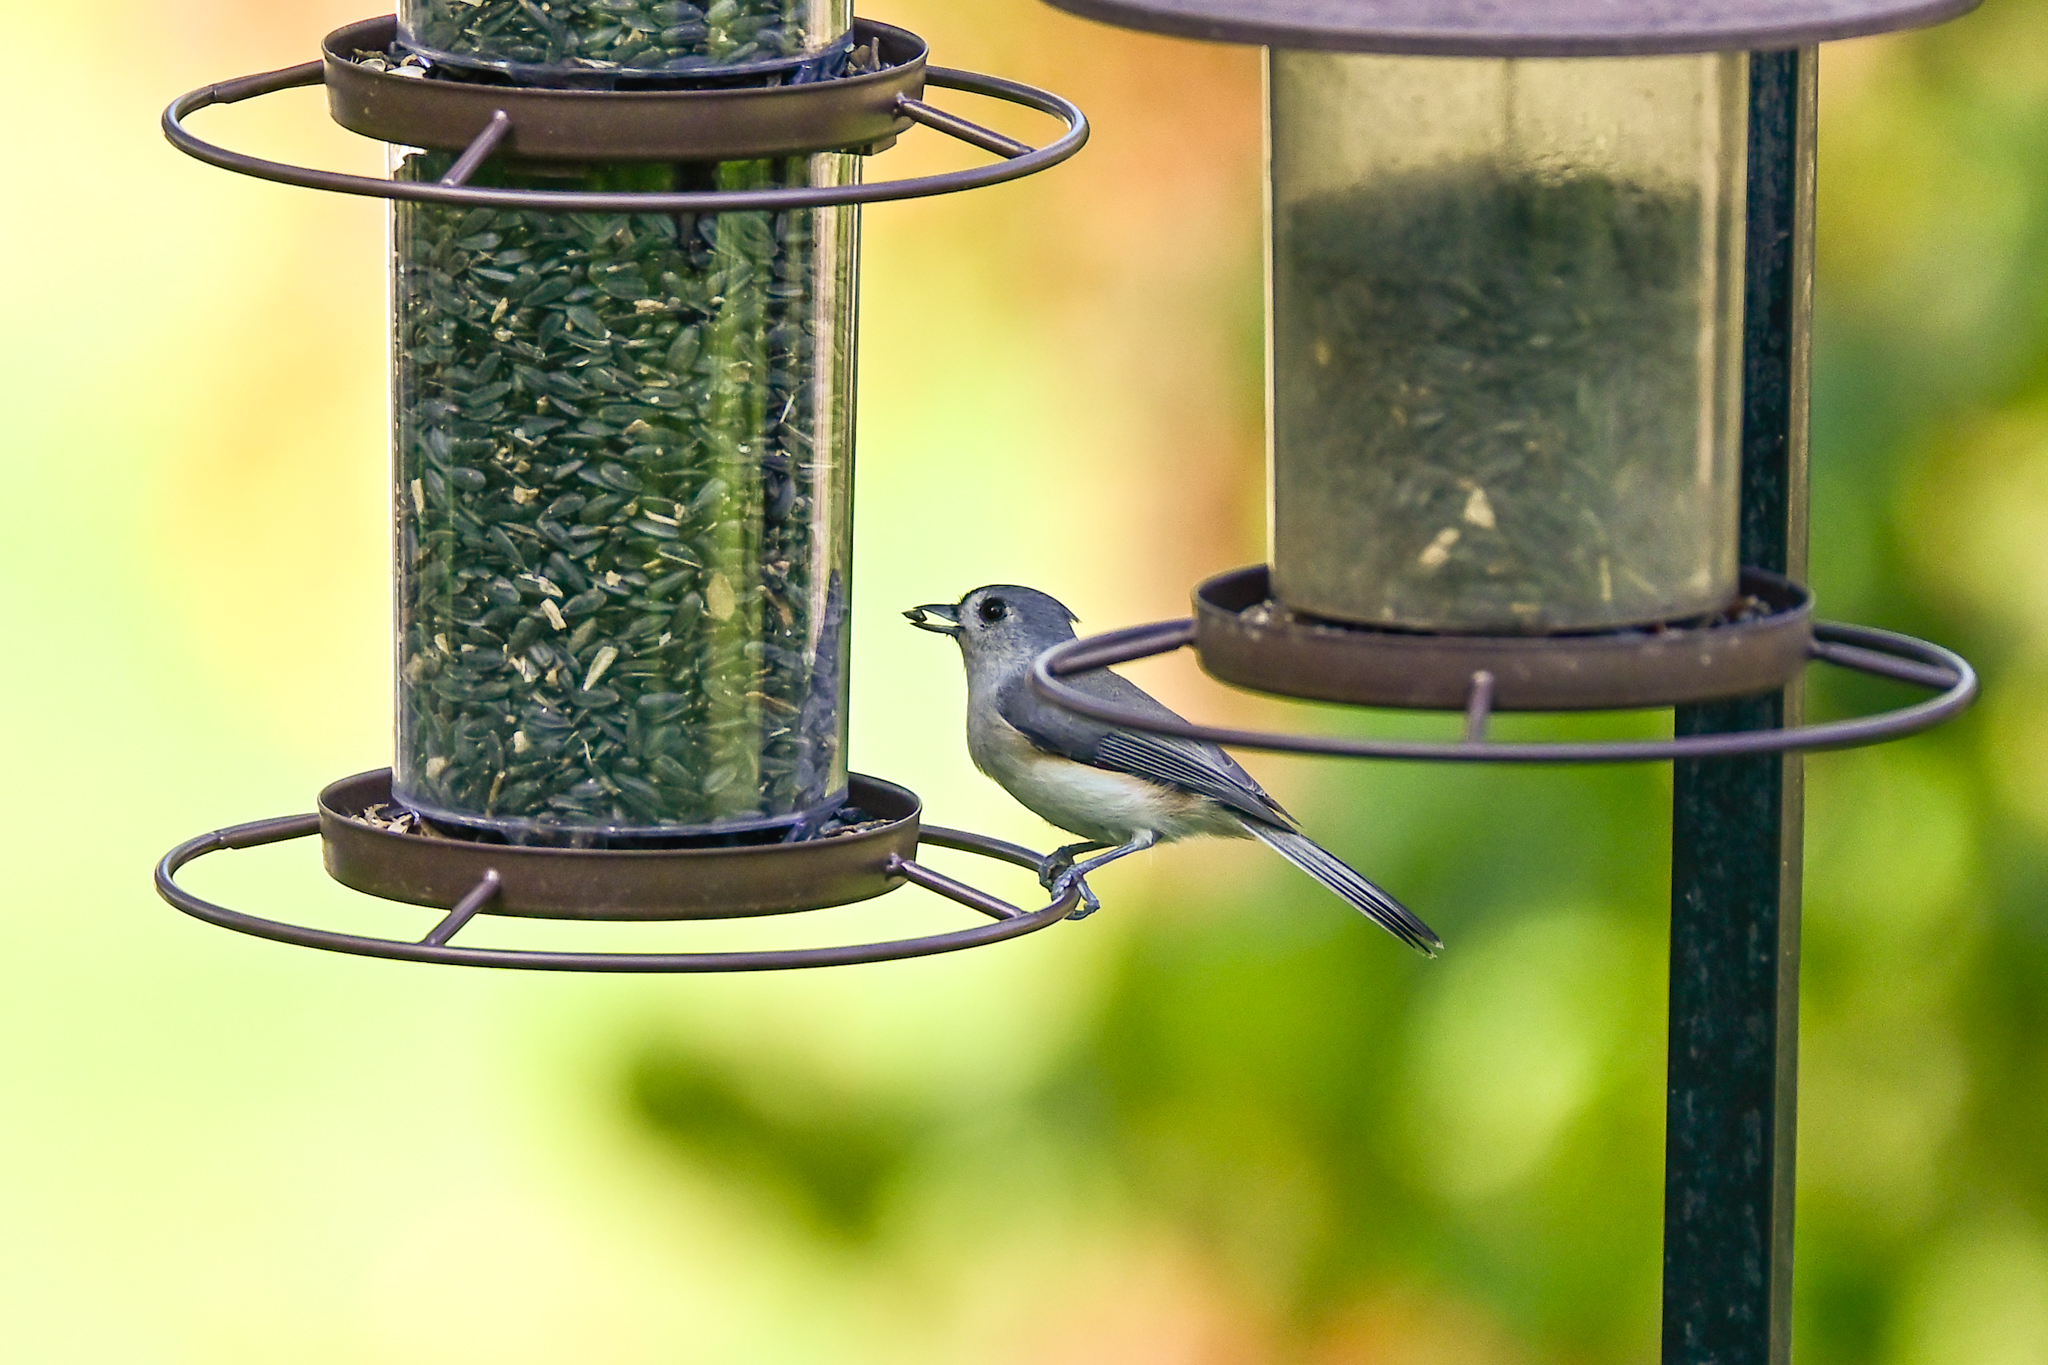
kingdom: Animalia
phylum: Chordata
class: Aves
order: Passeriformes
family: Paridae
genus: Baeolophus
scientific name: Baeolophus bicolor
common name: Tufted titmouse
